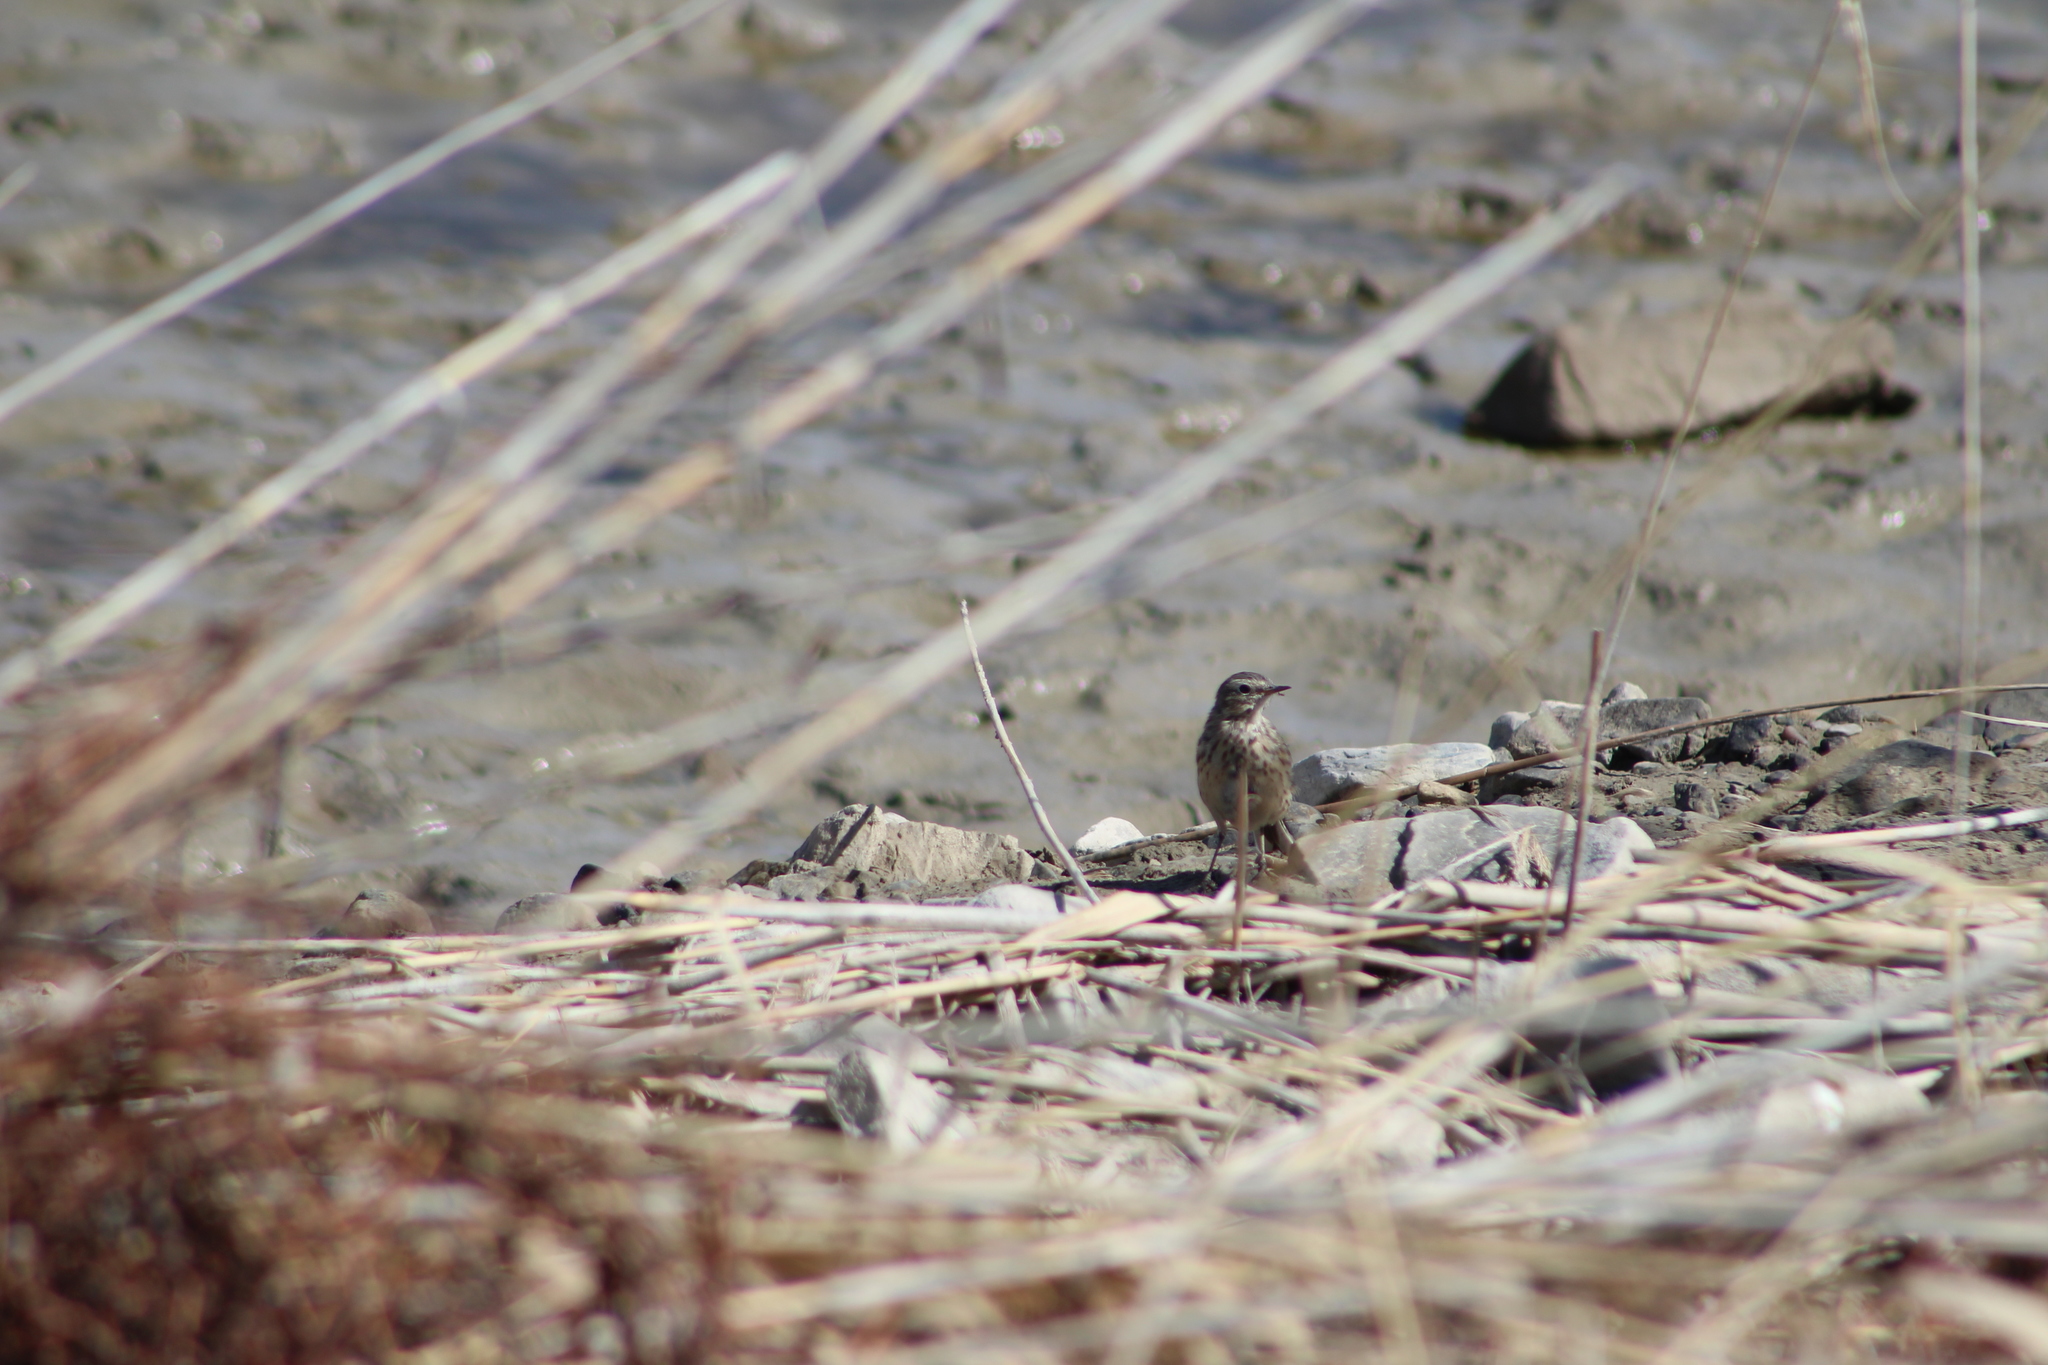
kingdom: Animalia
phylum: Chordata
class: Aves
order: Passeriformes
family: Motacillidae
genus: Anthus
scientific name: Anthus rubescens
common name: Buff-bellied pipit
